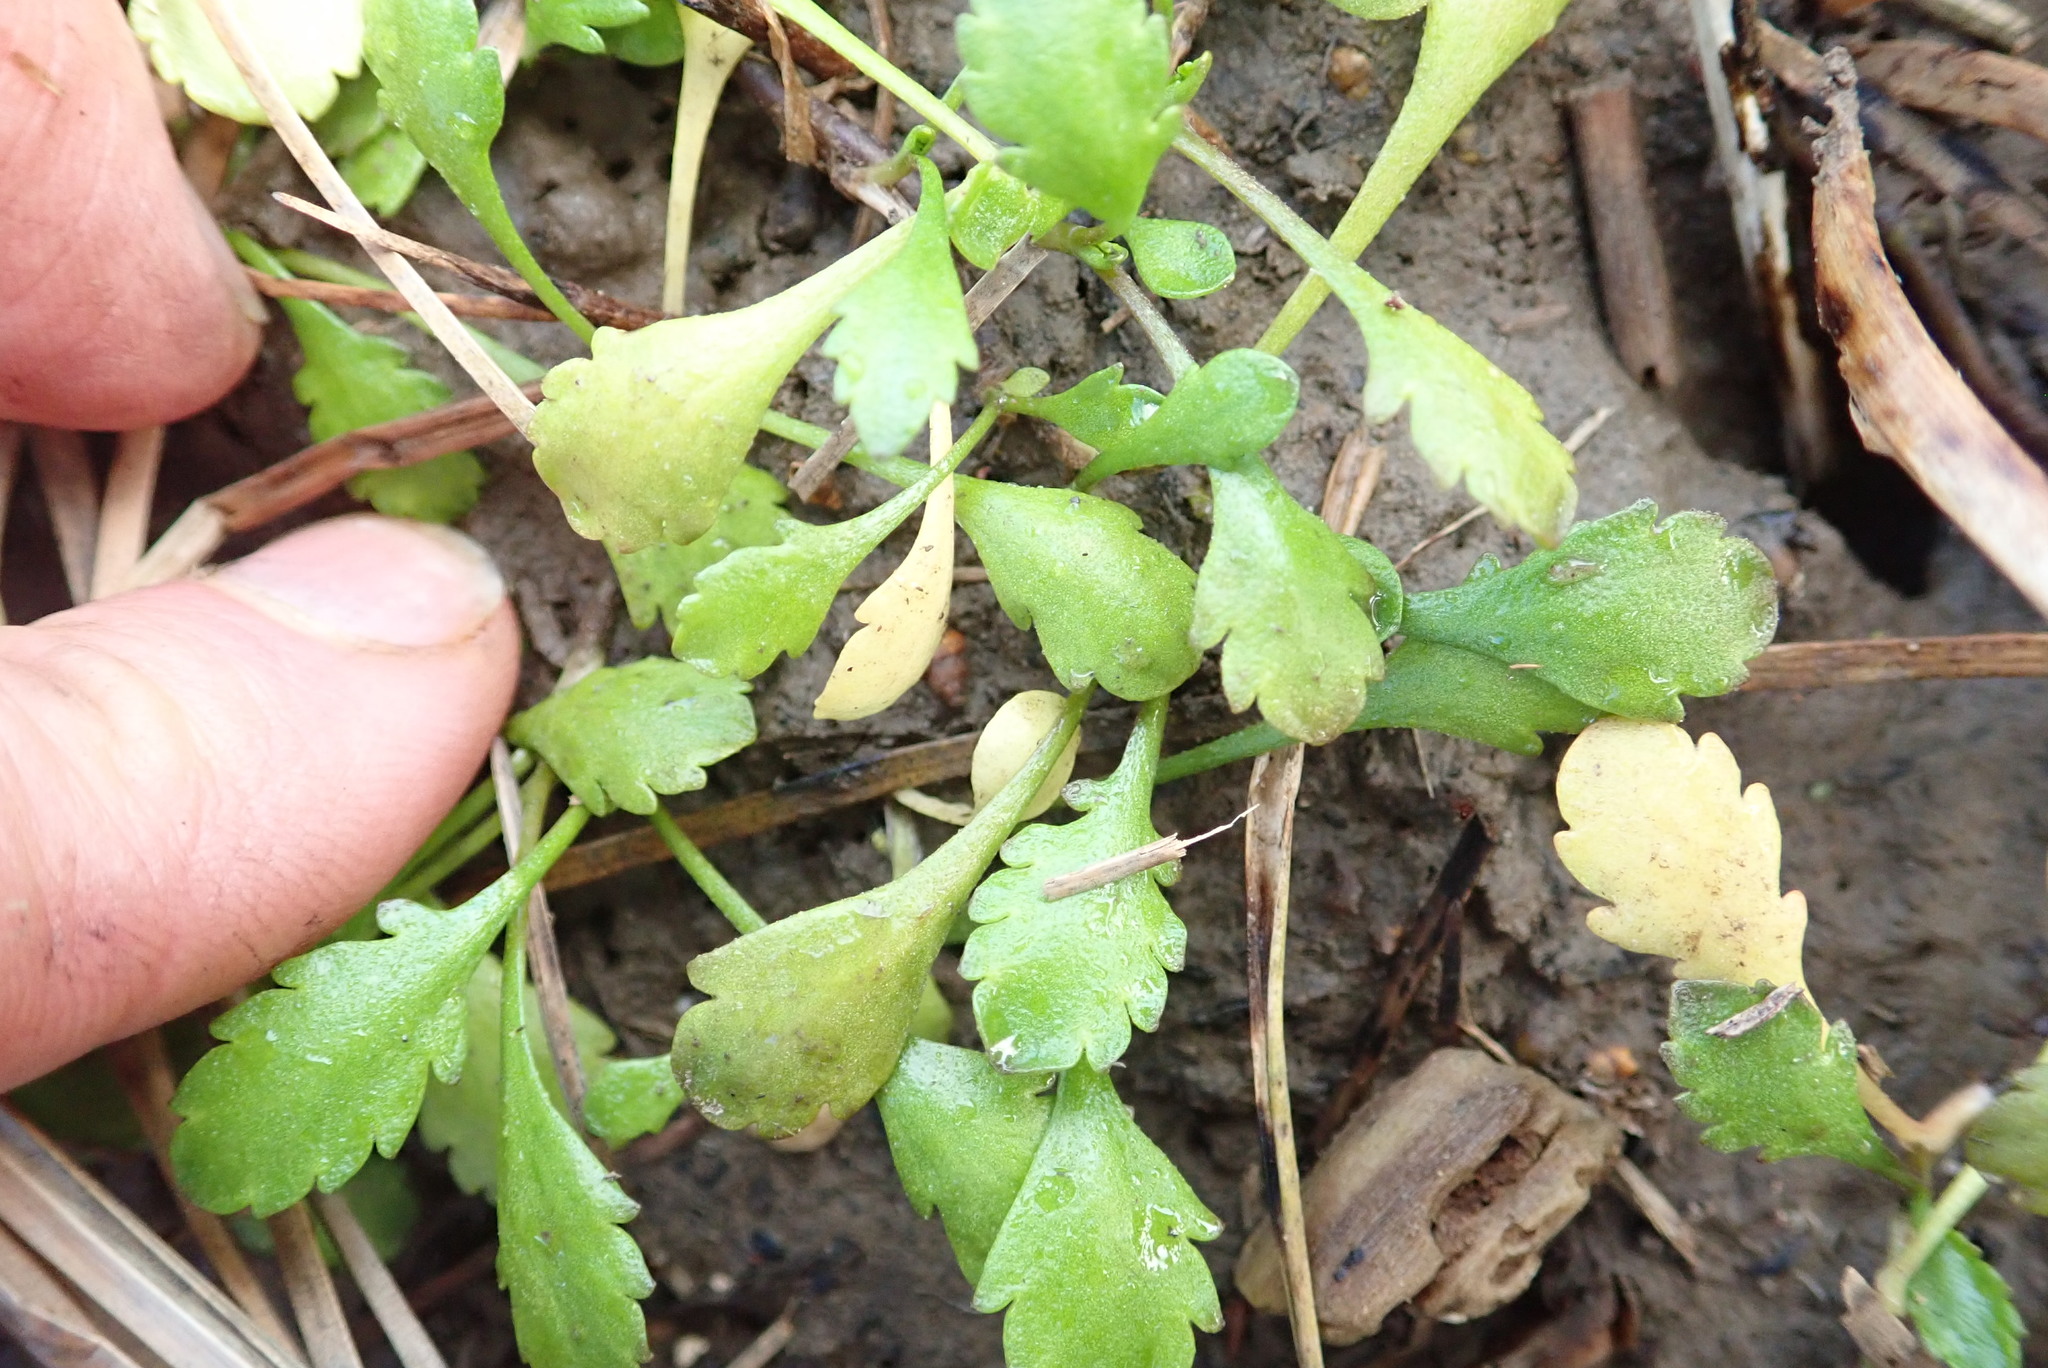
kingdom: Plantae
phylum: Tracheophyta
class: Magnoliopsida
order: Asterales
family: Asteraceae
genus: Leptinella
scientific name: Leptinella dioica
